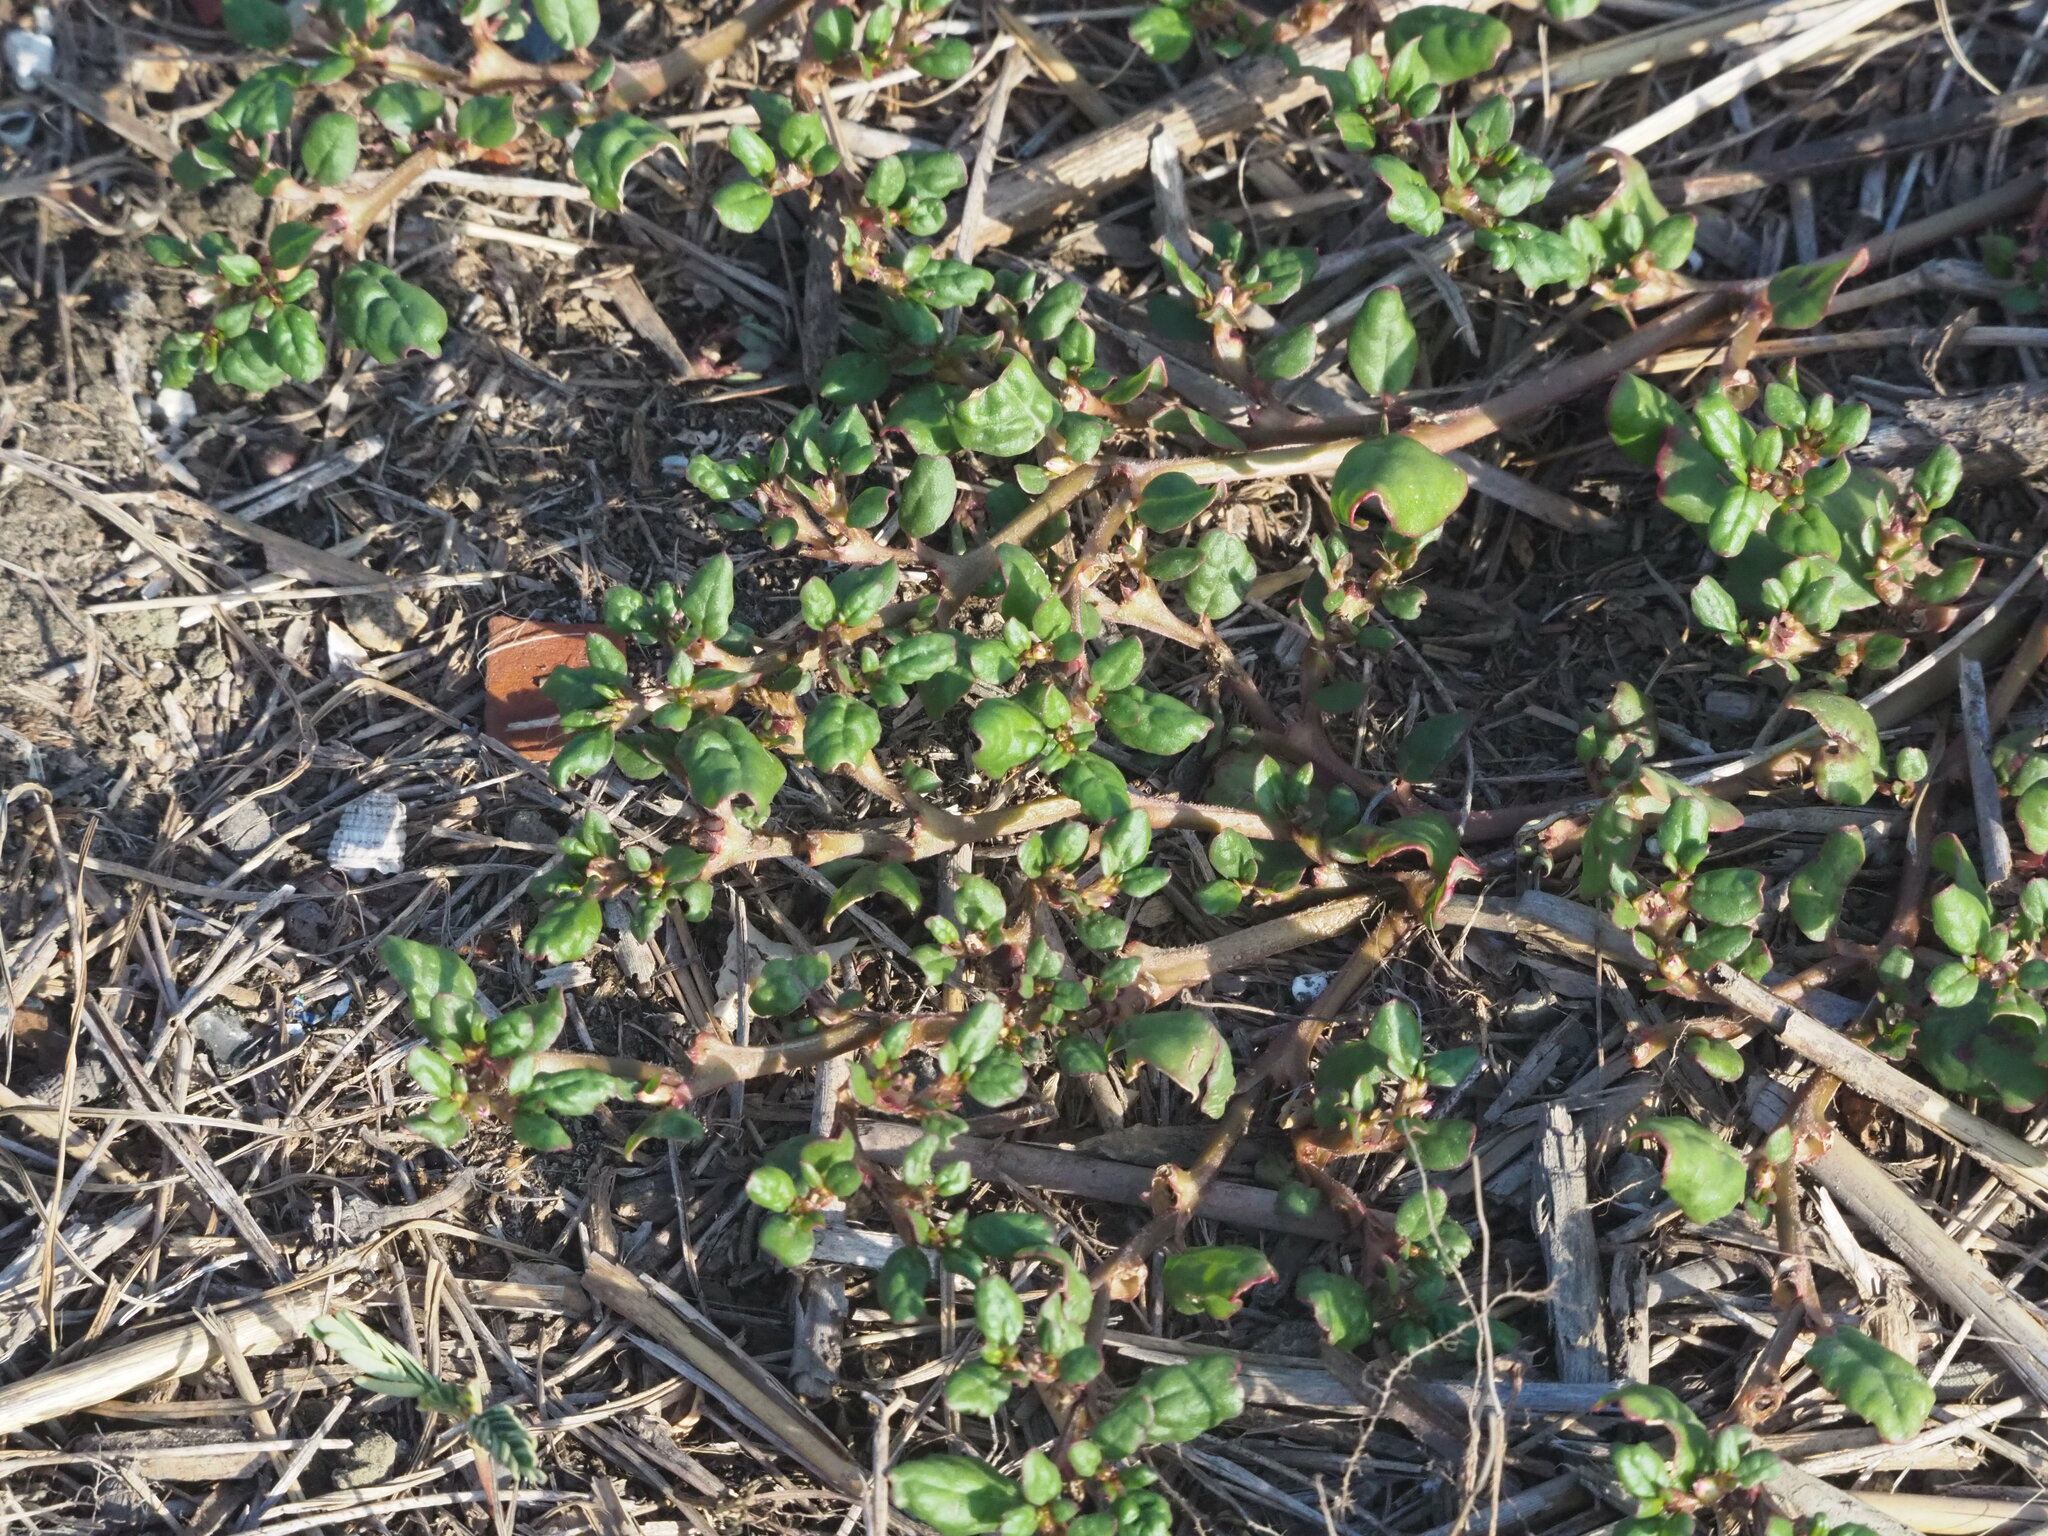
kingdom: Plantae
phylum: Tracheophyta
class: Magnoliopsida
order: Caryophyllales
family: Aizoaceae
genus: Trianthema
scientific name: Trianthema portulacastrum
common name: Desert horsepurslane
